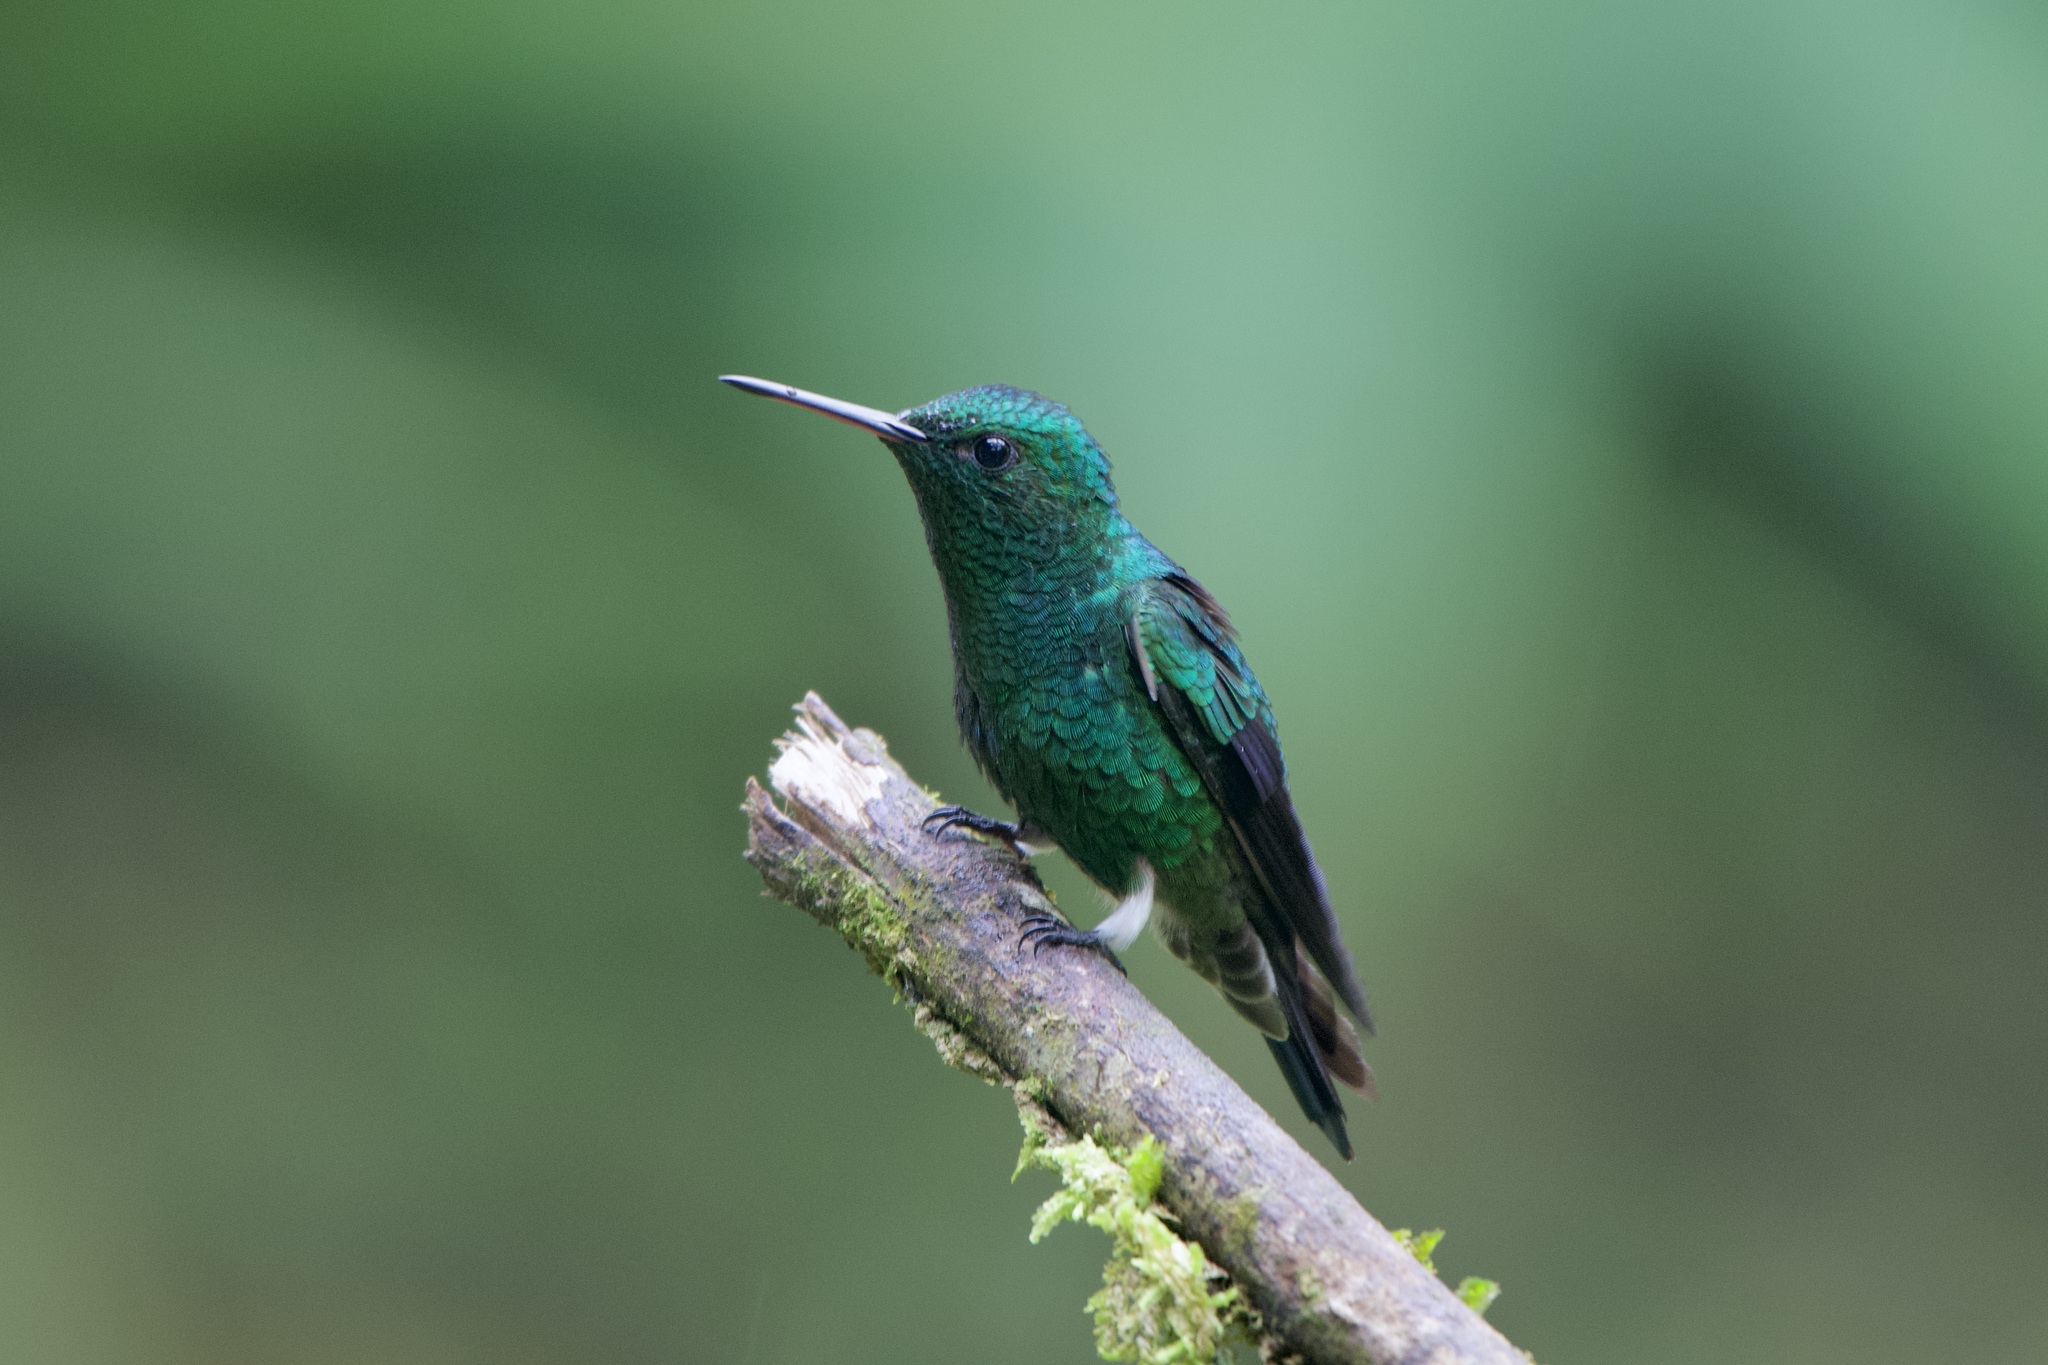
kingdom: Animalia
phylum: Chordata
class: Aves
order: Apodiformes
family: Trochilidae
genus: Saucerottia
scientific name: Saucerottia saucerottei
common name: Steely-vented hummingbird
